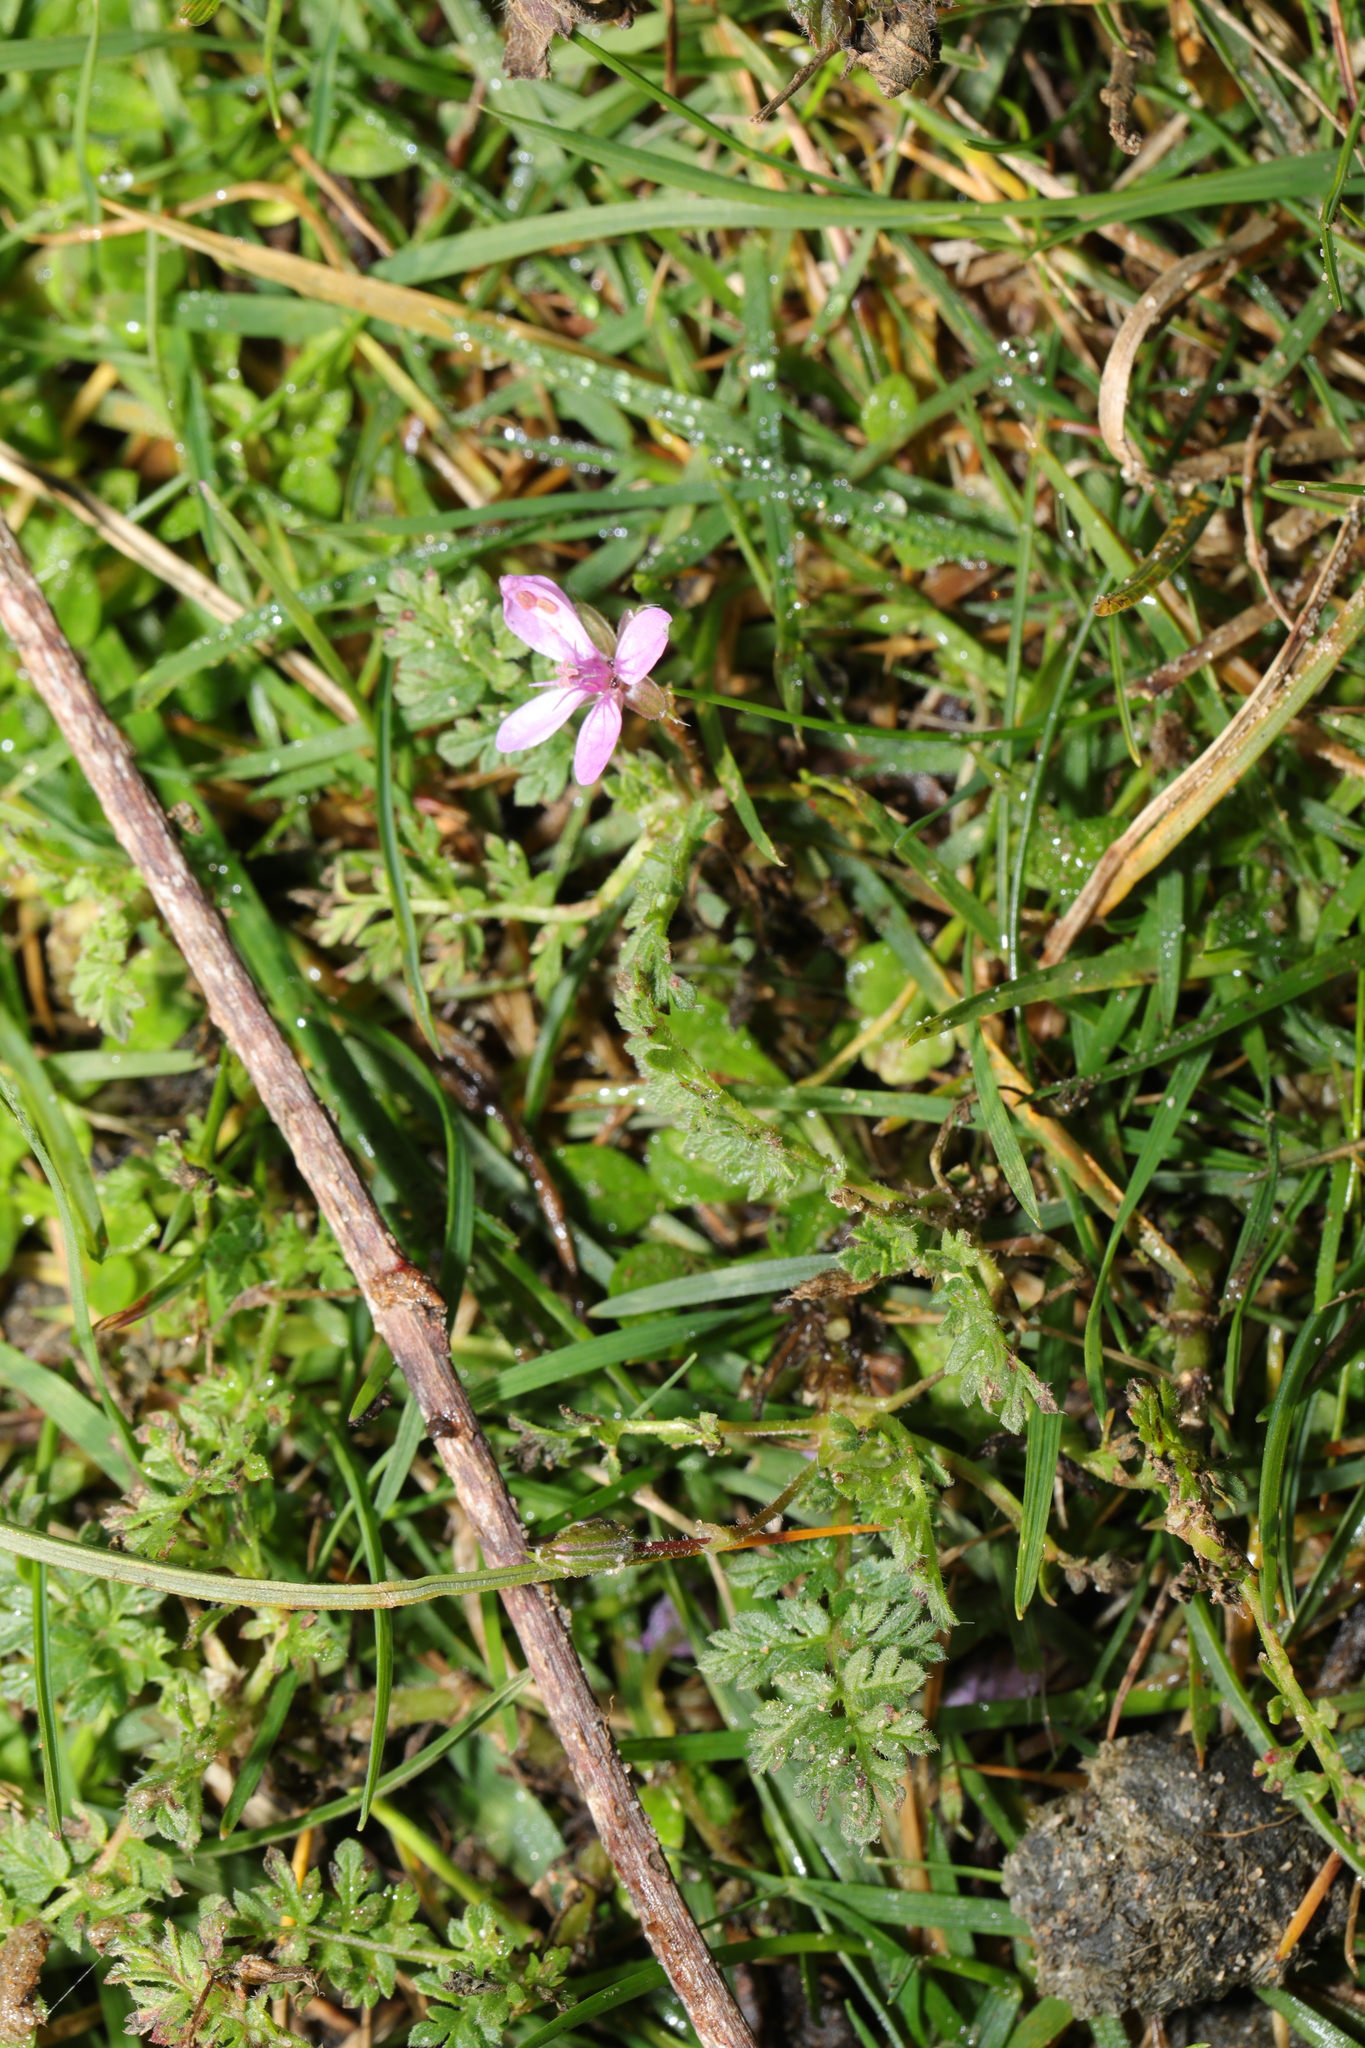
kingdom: Plantae
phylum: Tracheophyta
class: Magnoliopsida
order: Geraniales
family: Geraniaceae
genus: Erodium
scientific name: Erodium cicutarium
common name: Common stork's-bill
